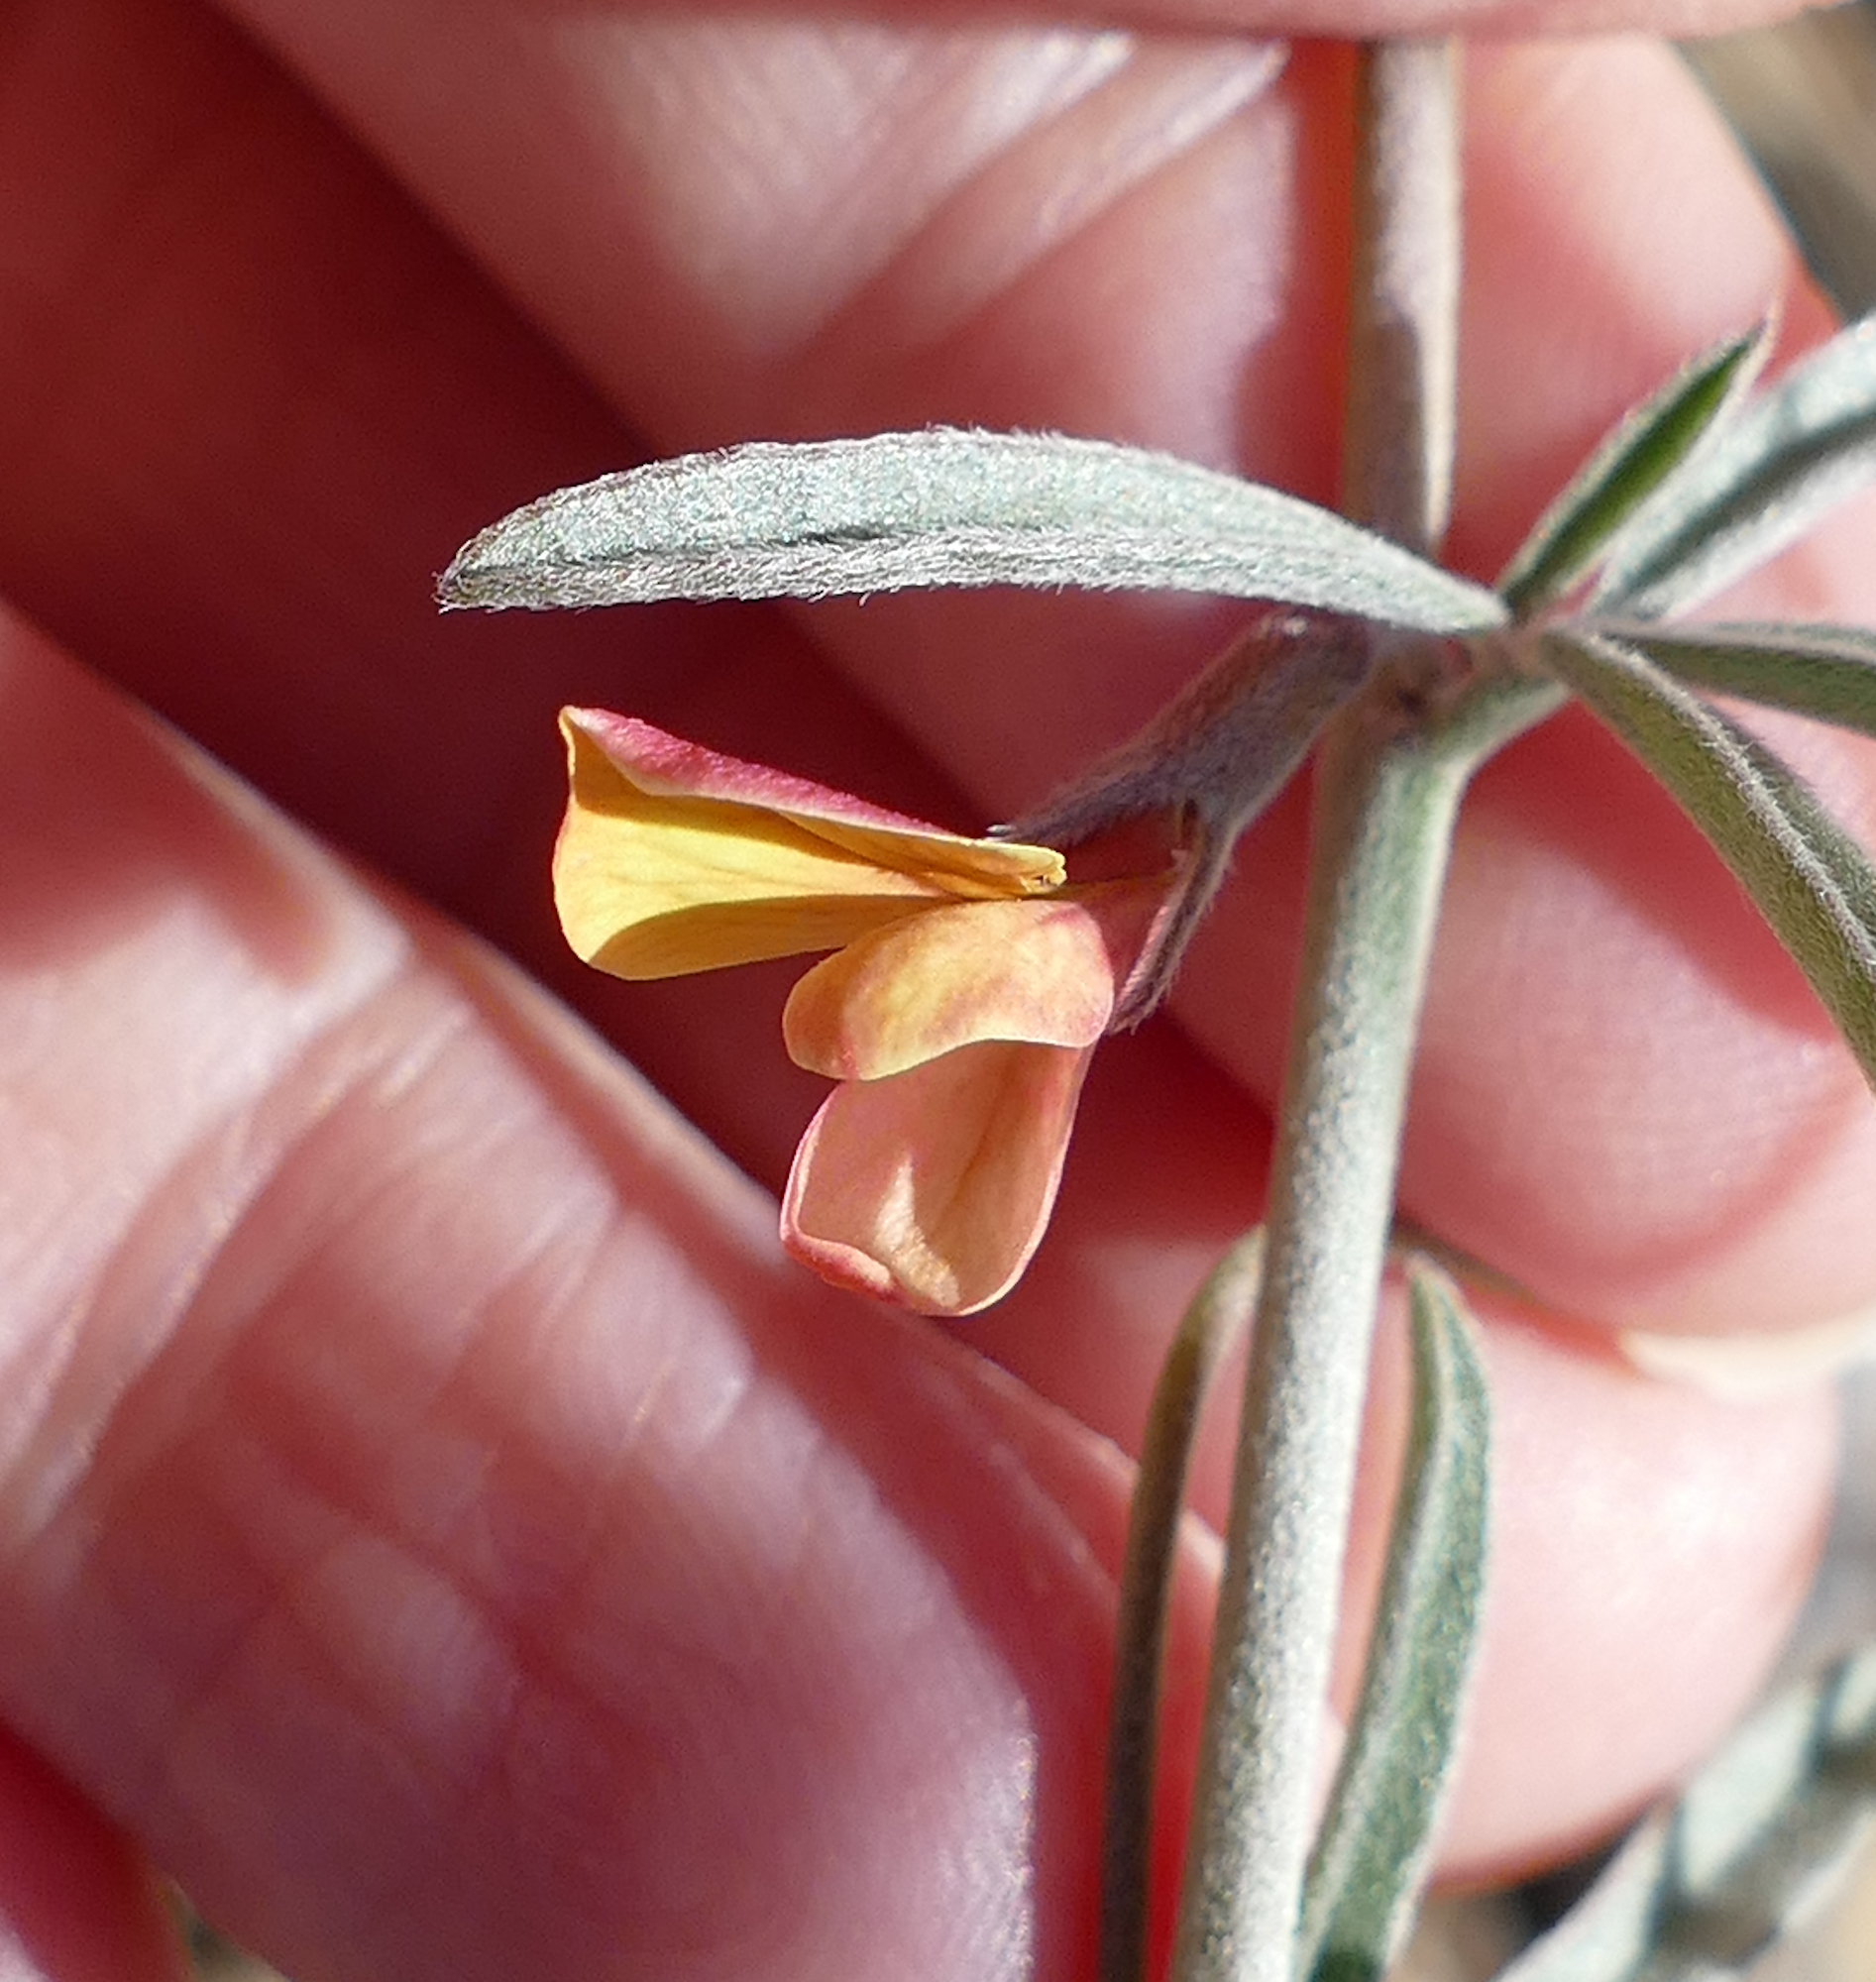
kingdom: Plantae
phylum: Tracheophyta
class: Magnoliopsida
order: Fabales
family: Fabaceae
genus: Acmispon
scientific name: Acmispon wrightii
